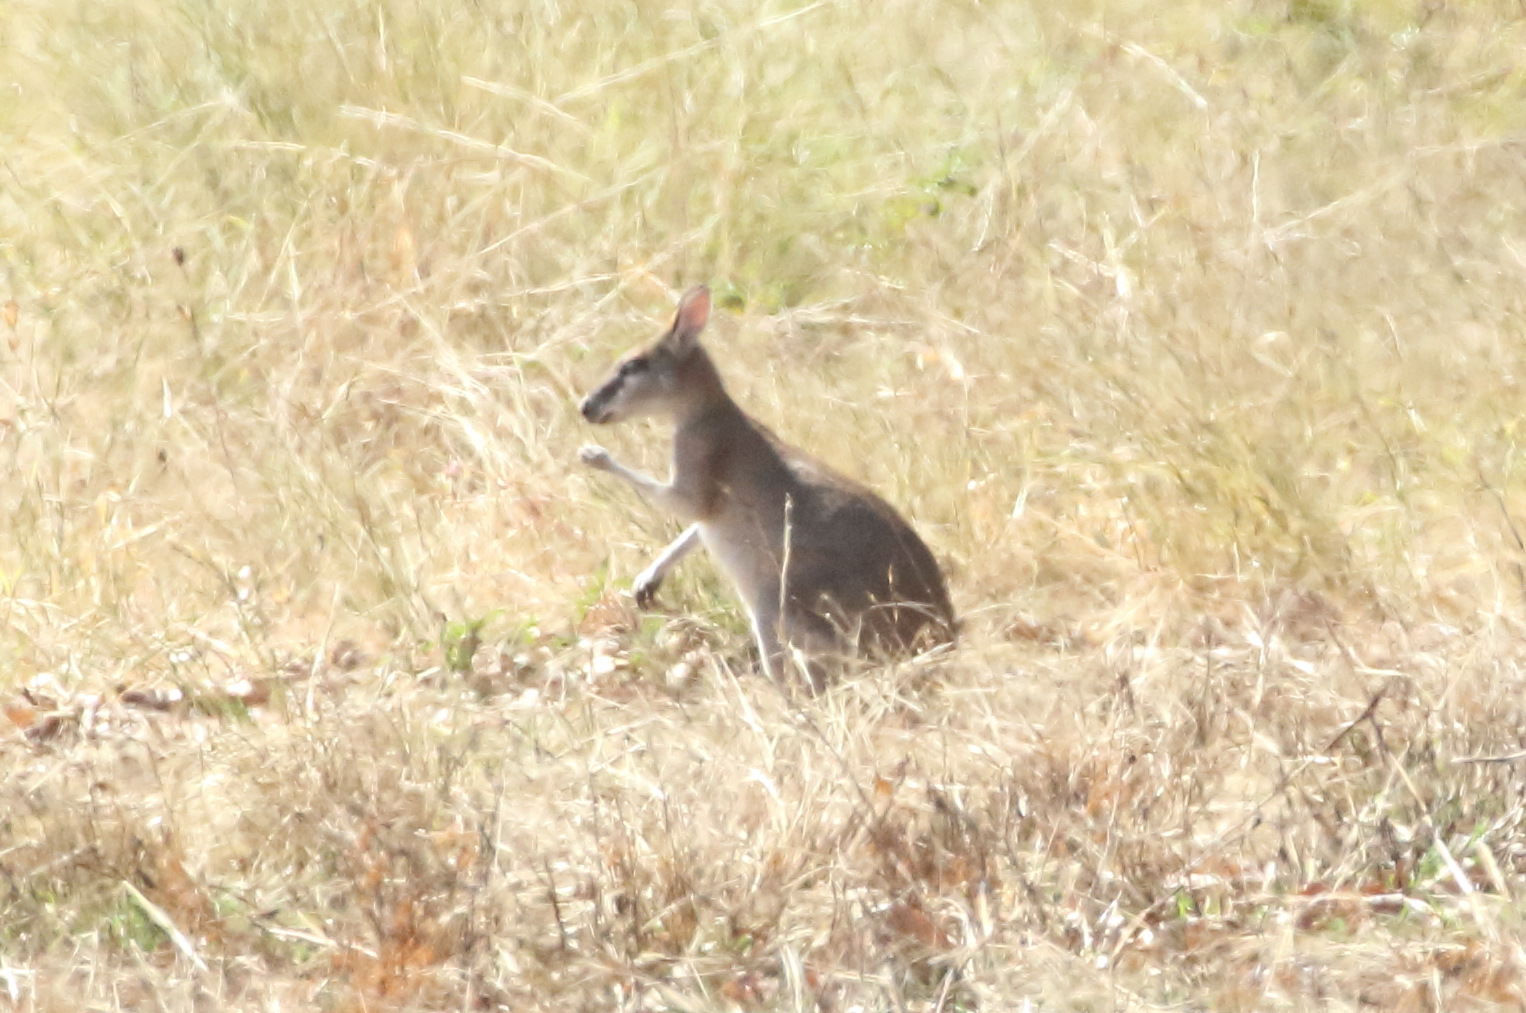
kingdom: Animalia
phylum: Chordata
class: Mammalia
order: Diprotodontia
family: Macropodidae
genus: Macropus
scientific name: Macropus agilis
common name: Agile wallaby
